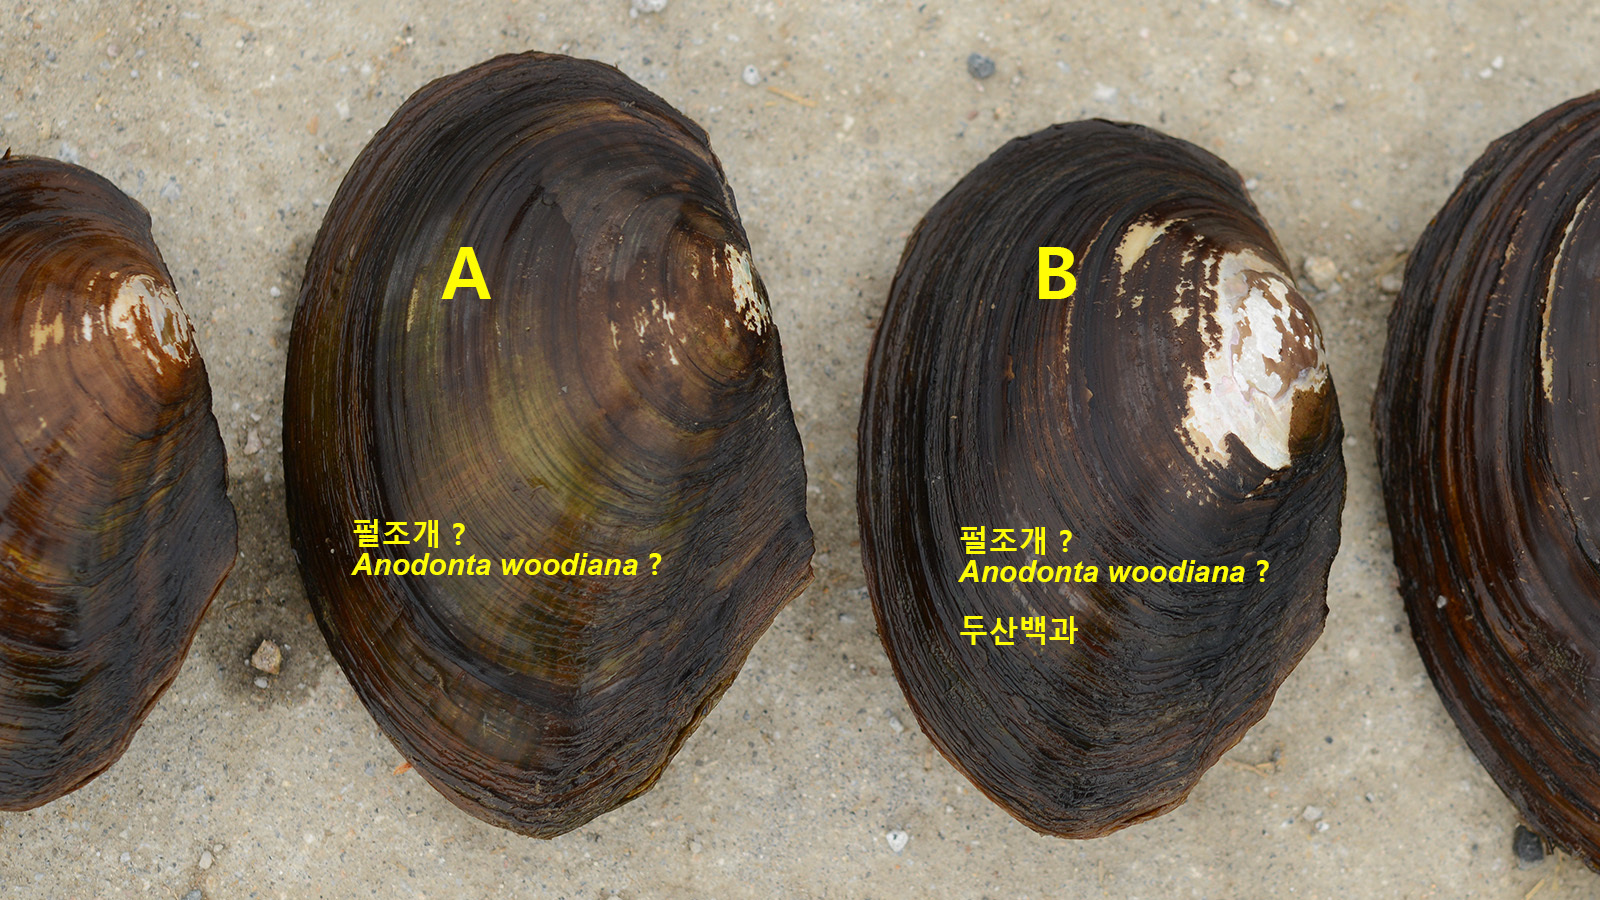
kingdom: Animalia
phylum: Mollusca
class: Bivalvia
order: Unionida
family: Unionidae
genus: Sinanodonta
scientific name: Sinanodonta lauta
